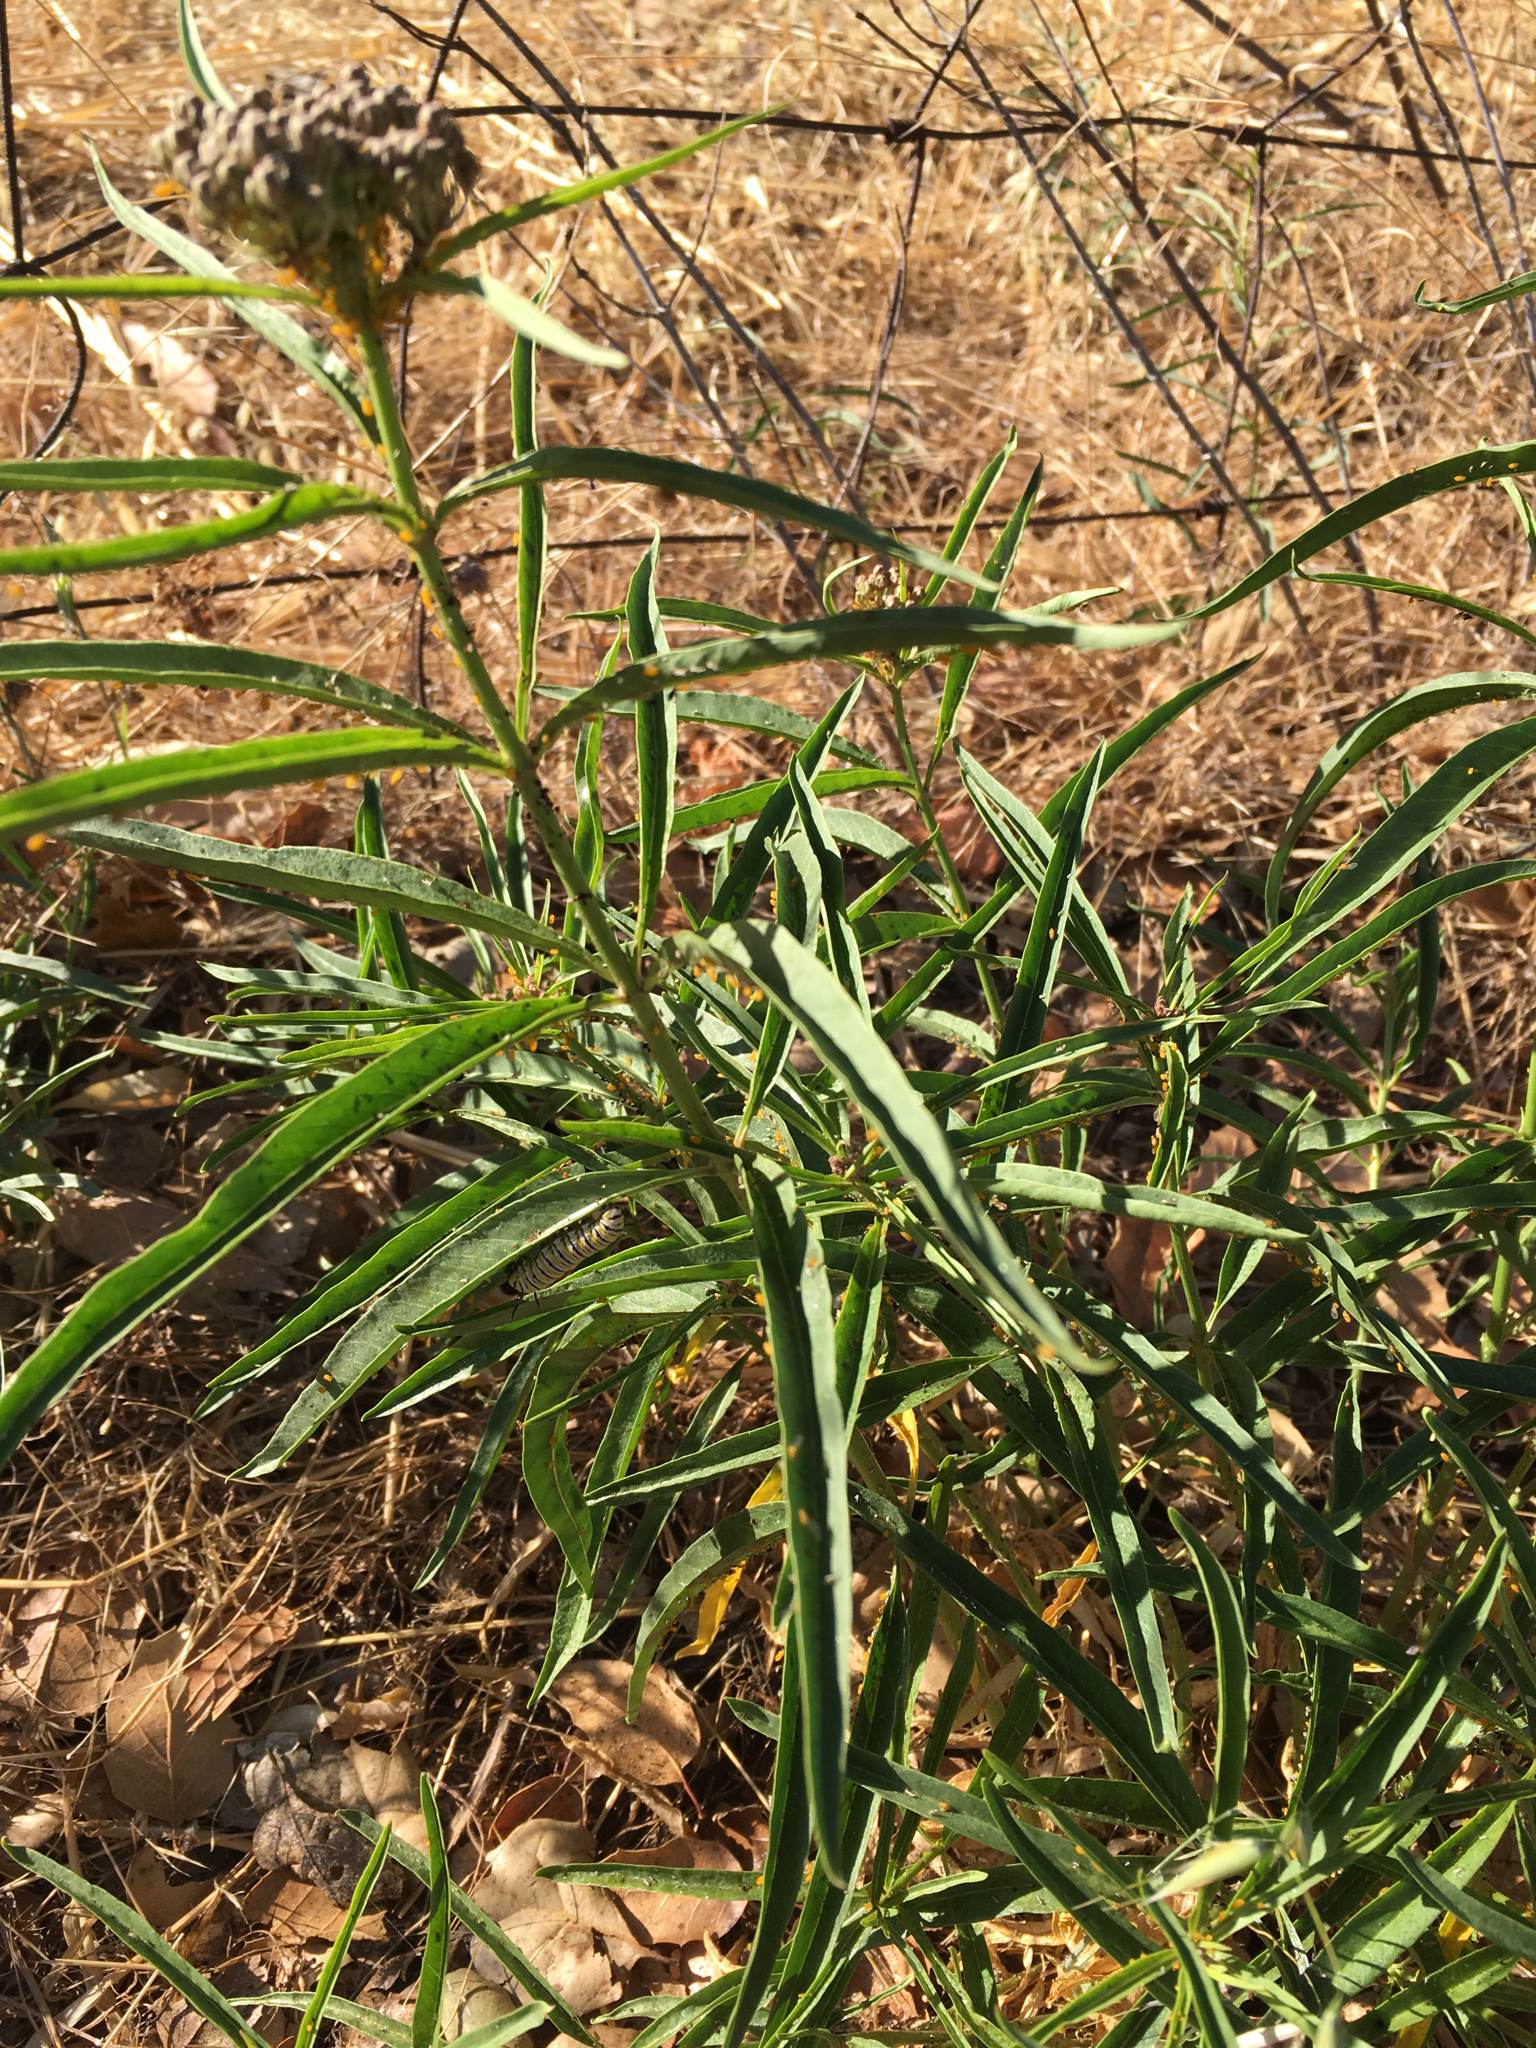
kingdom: Plantae
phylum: Tracheophyta
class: Magnoliopsida
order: Gentianales
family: Apocynaceae
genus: Asclepias
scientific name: Asclepias fascicularis
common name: Mexican milkweed
